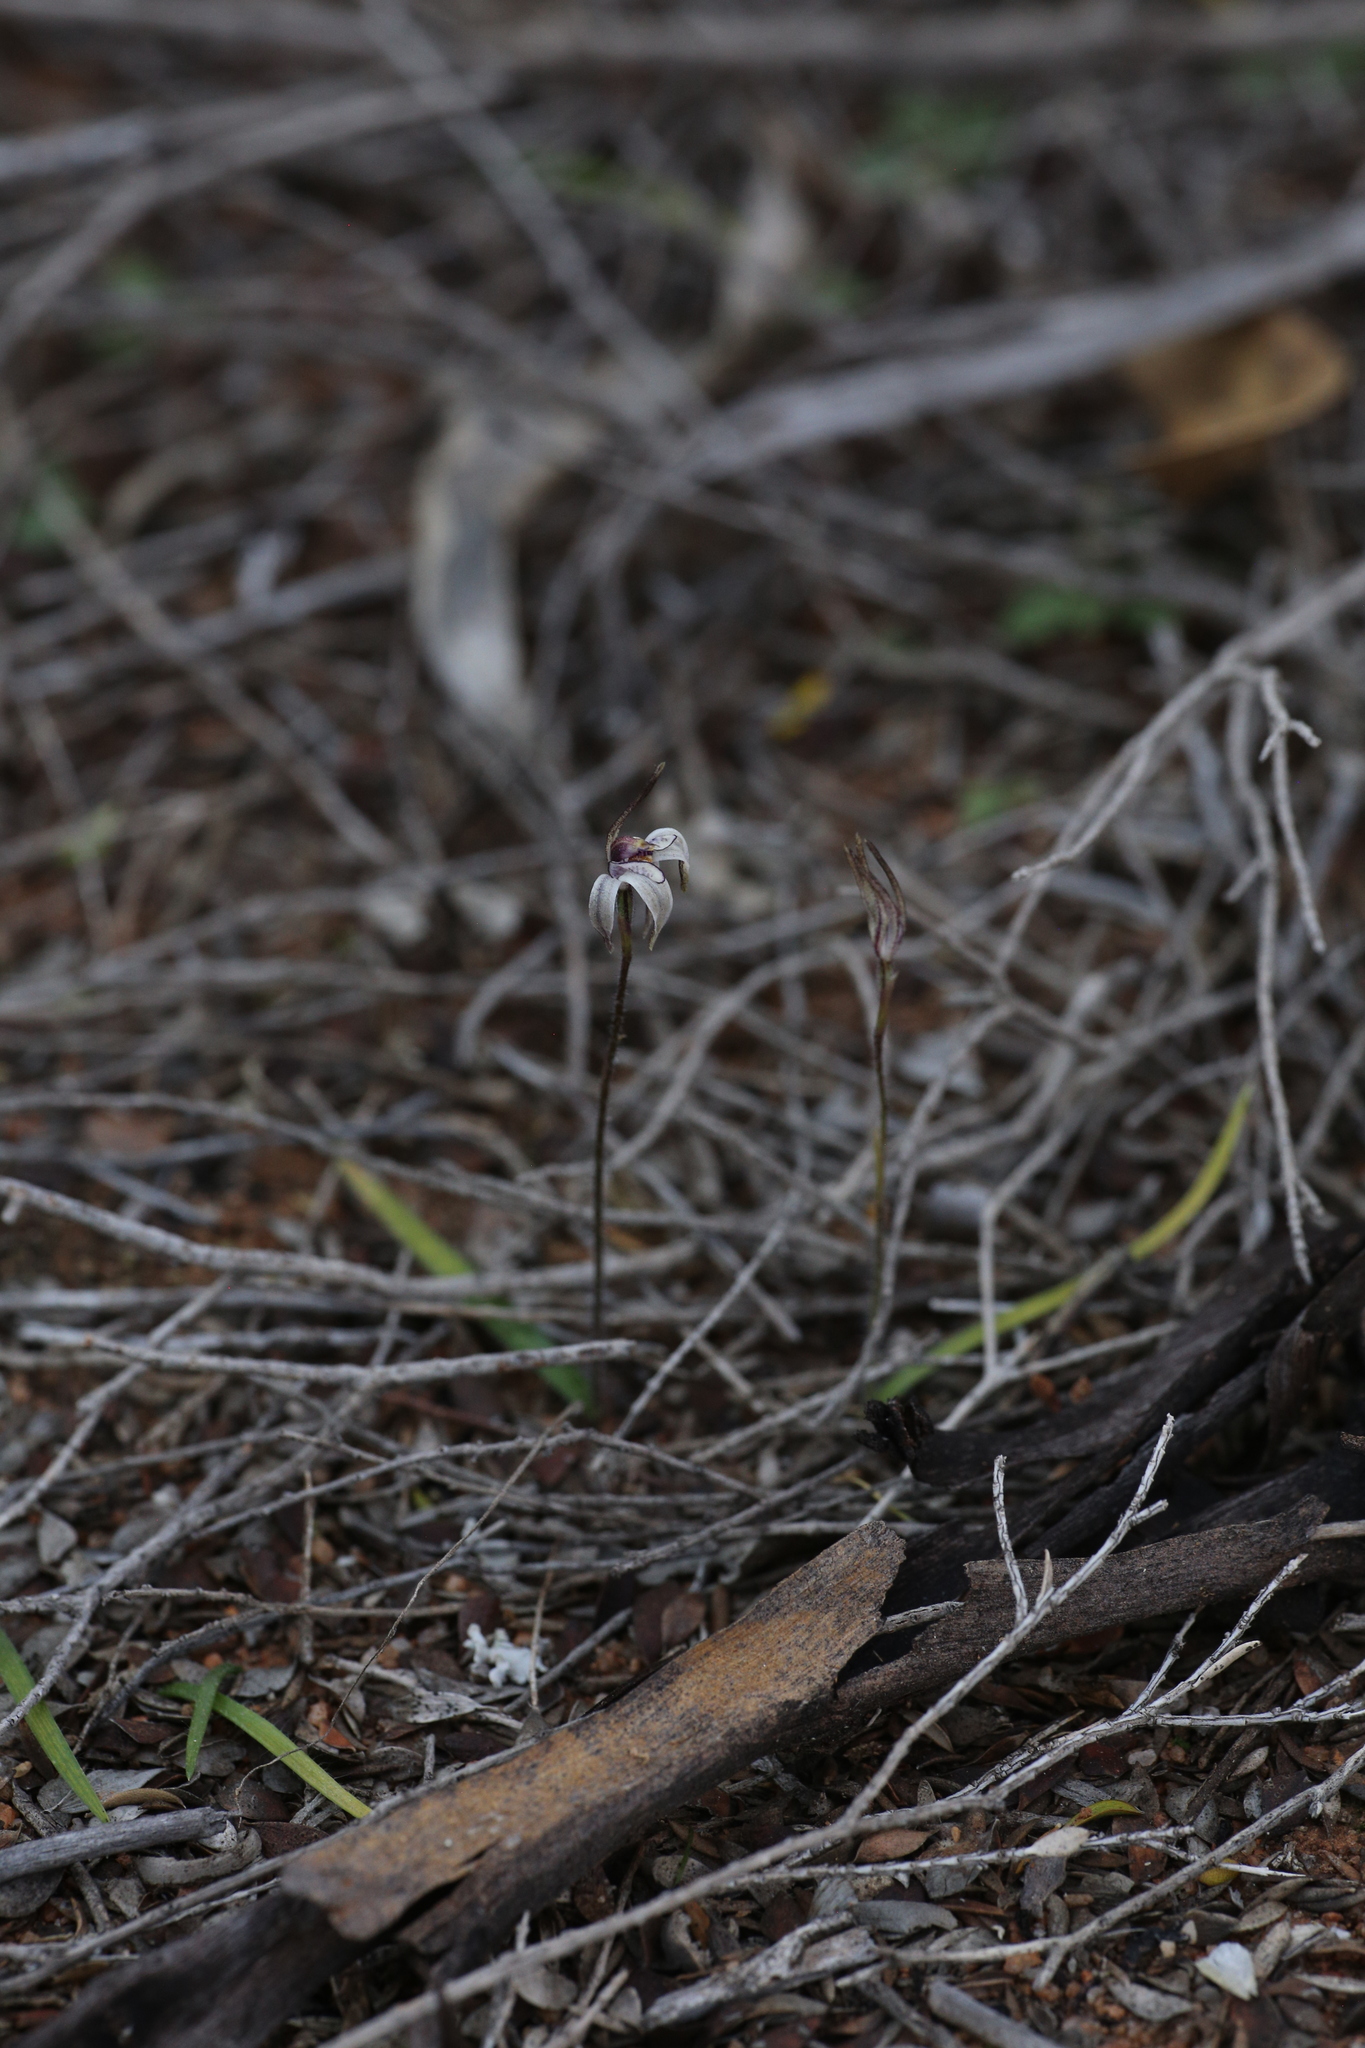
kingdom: Plantae
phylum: Tracheophyta
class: Liliopsida
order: Asparagales
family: Orchidaceae
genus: Caladenia
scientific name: Caladenia saccharata
